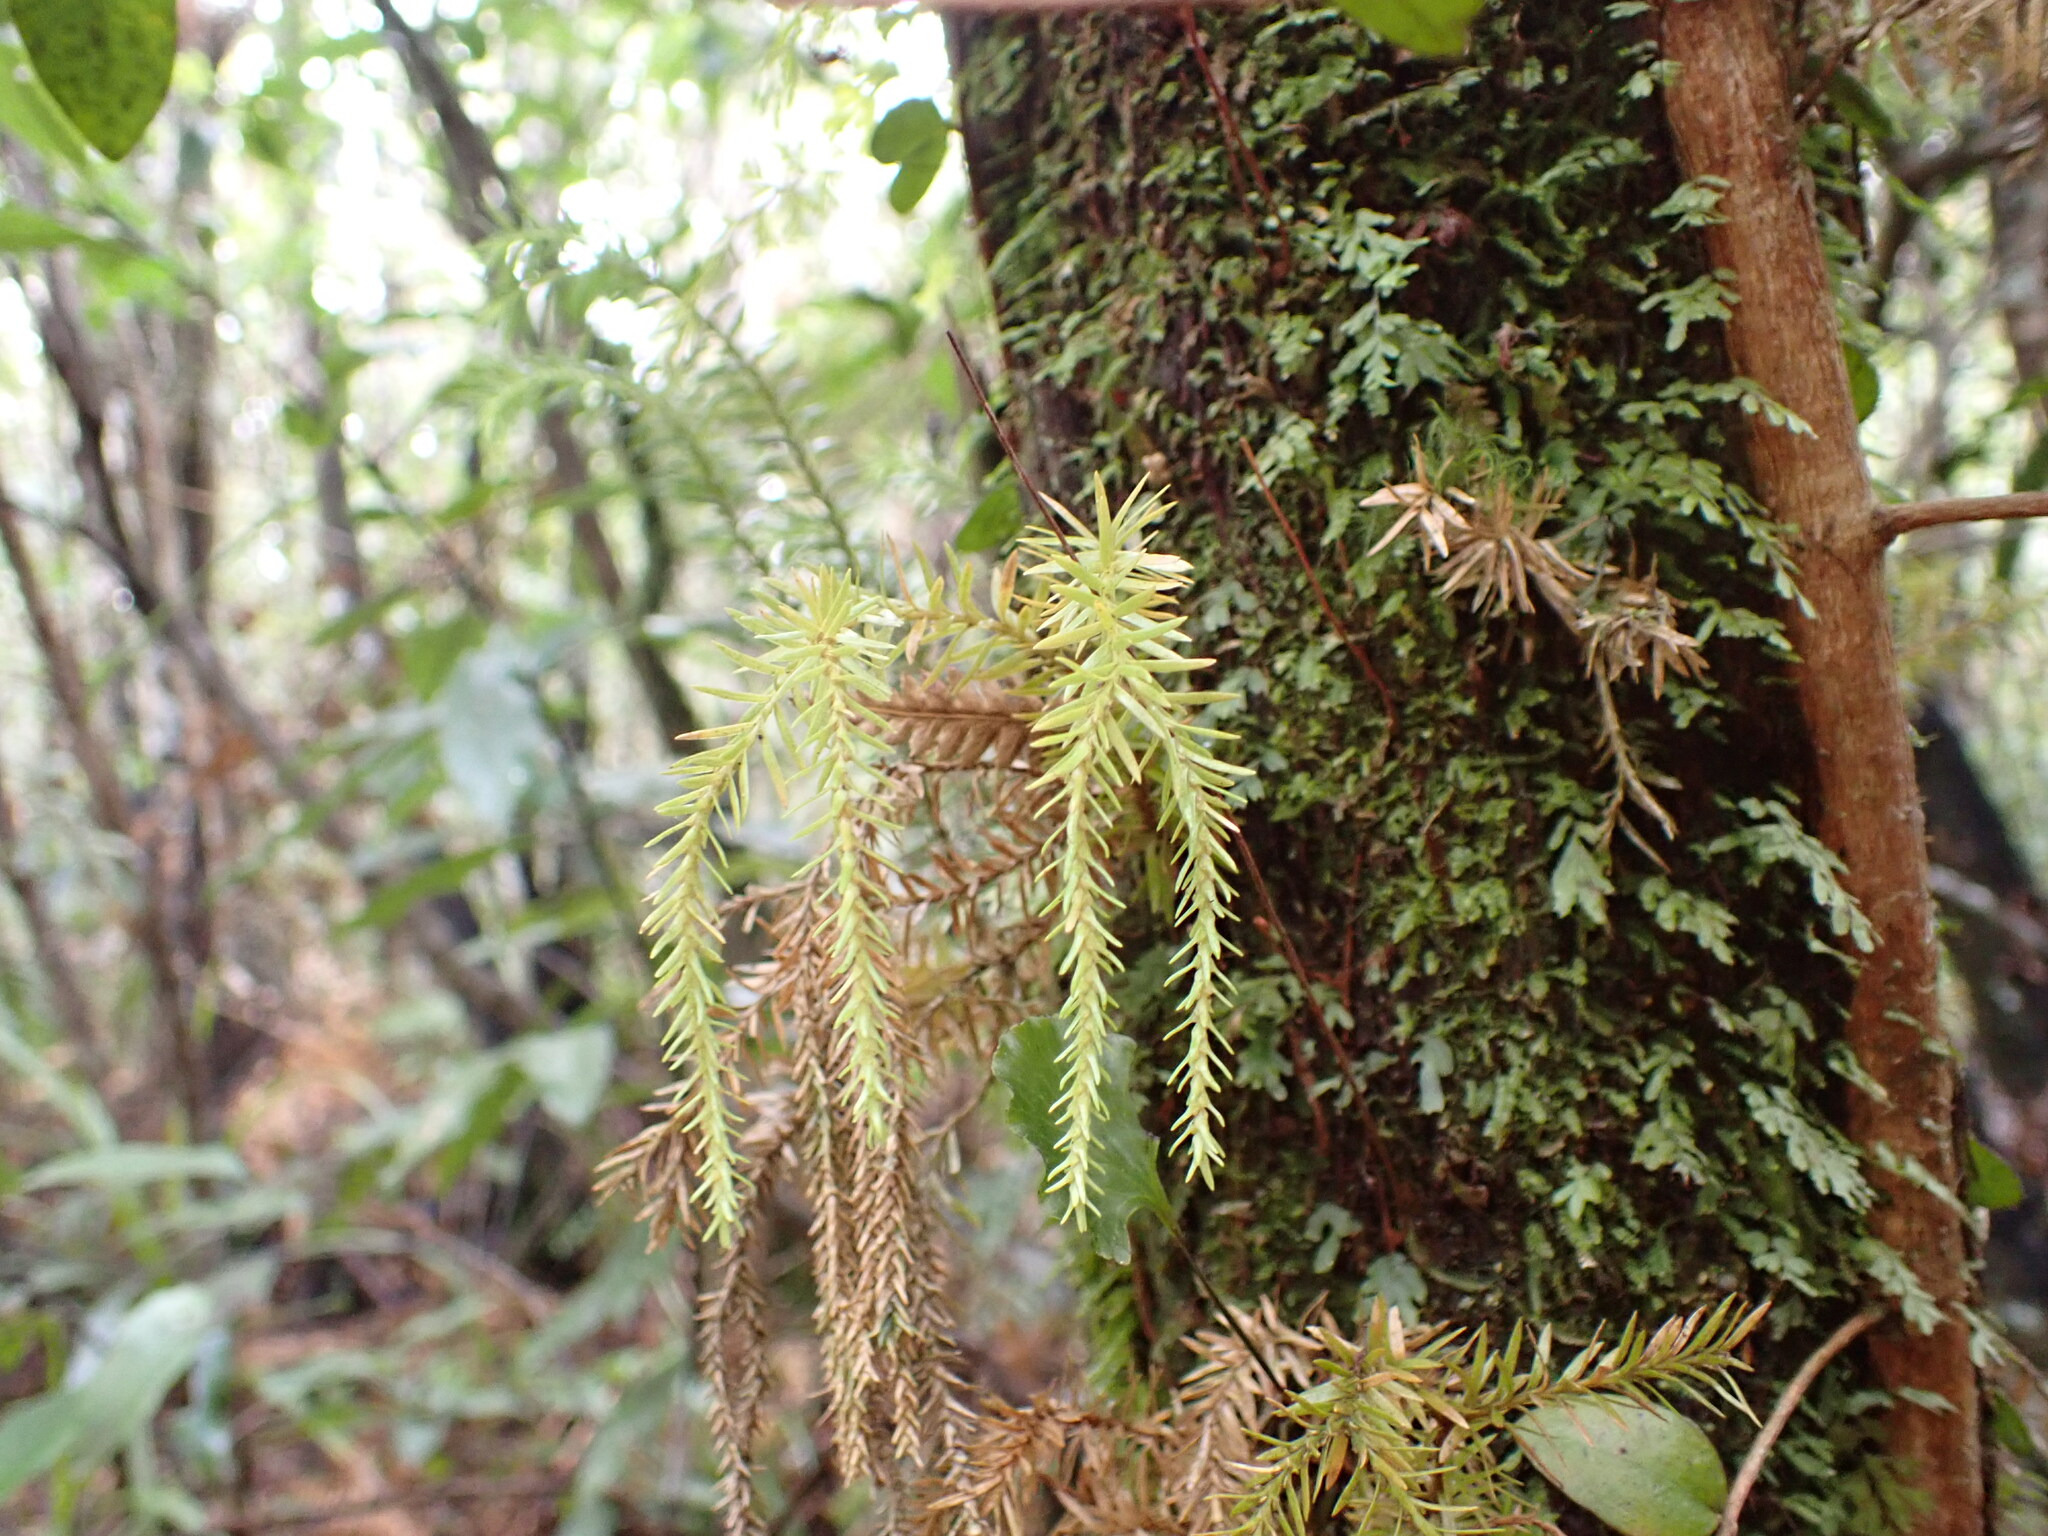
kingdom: Plantae
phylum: Tracheophyta
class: Lycopodiopsida
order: Lycopodiales
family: Lycopodiaceae
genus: Phlegmariurus
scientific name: Phlegmariurus varius
